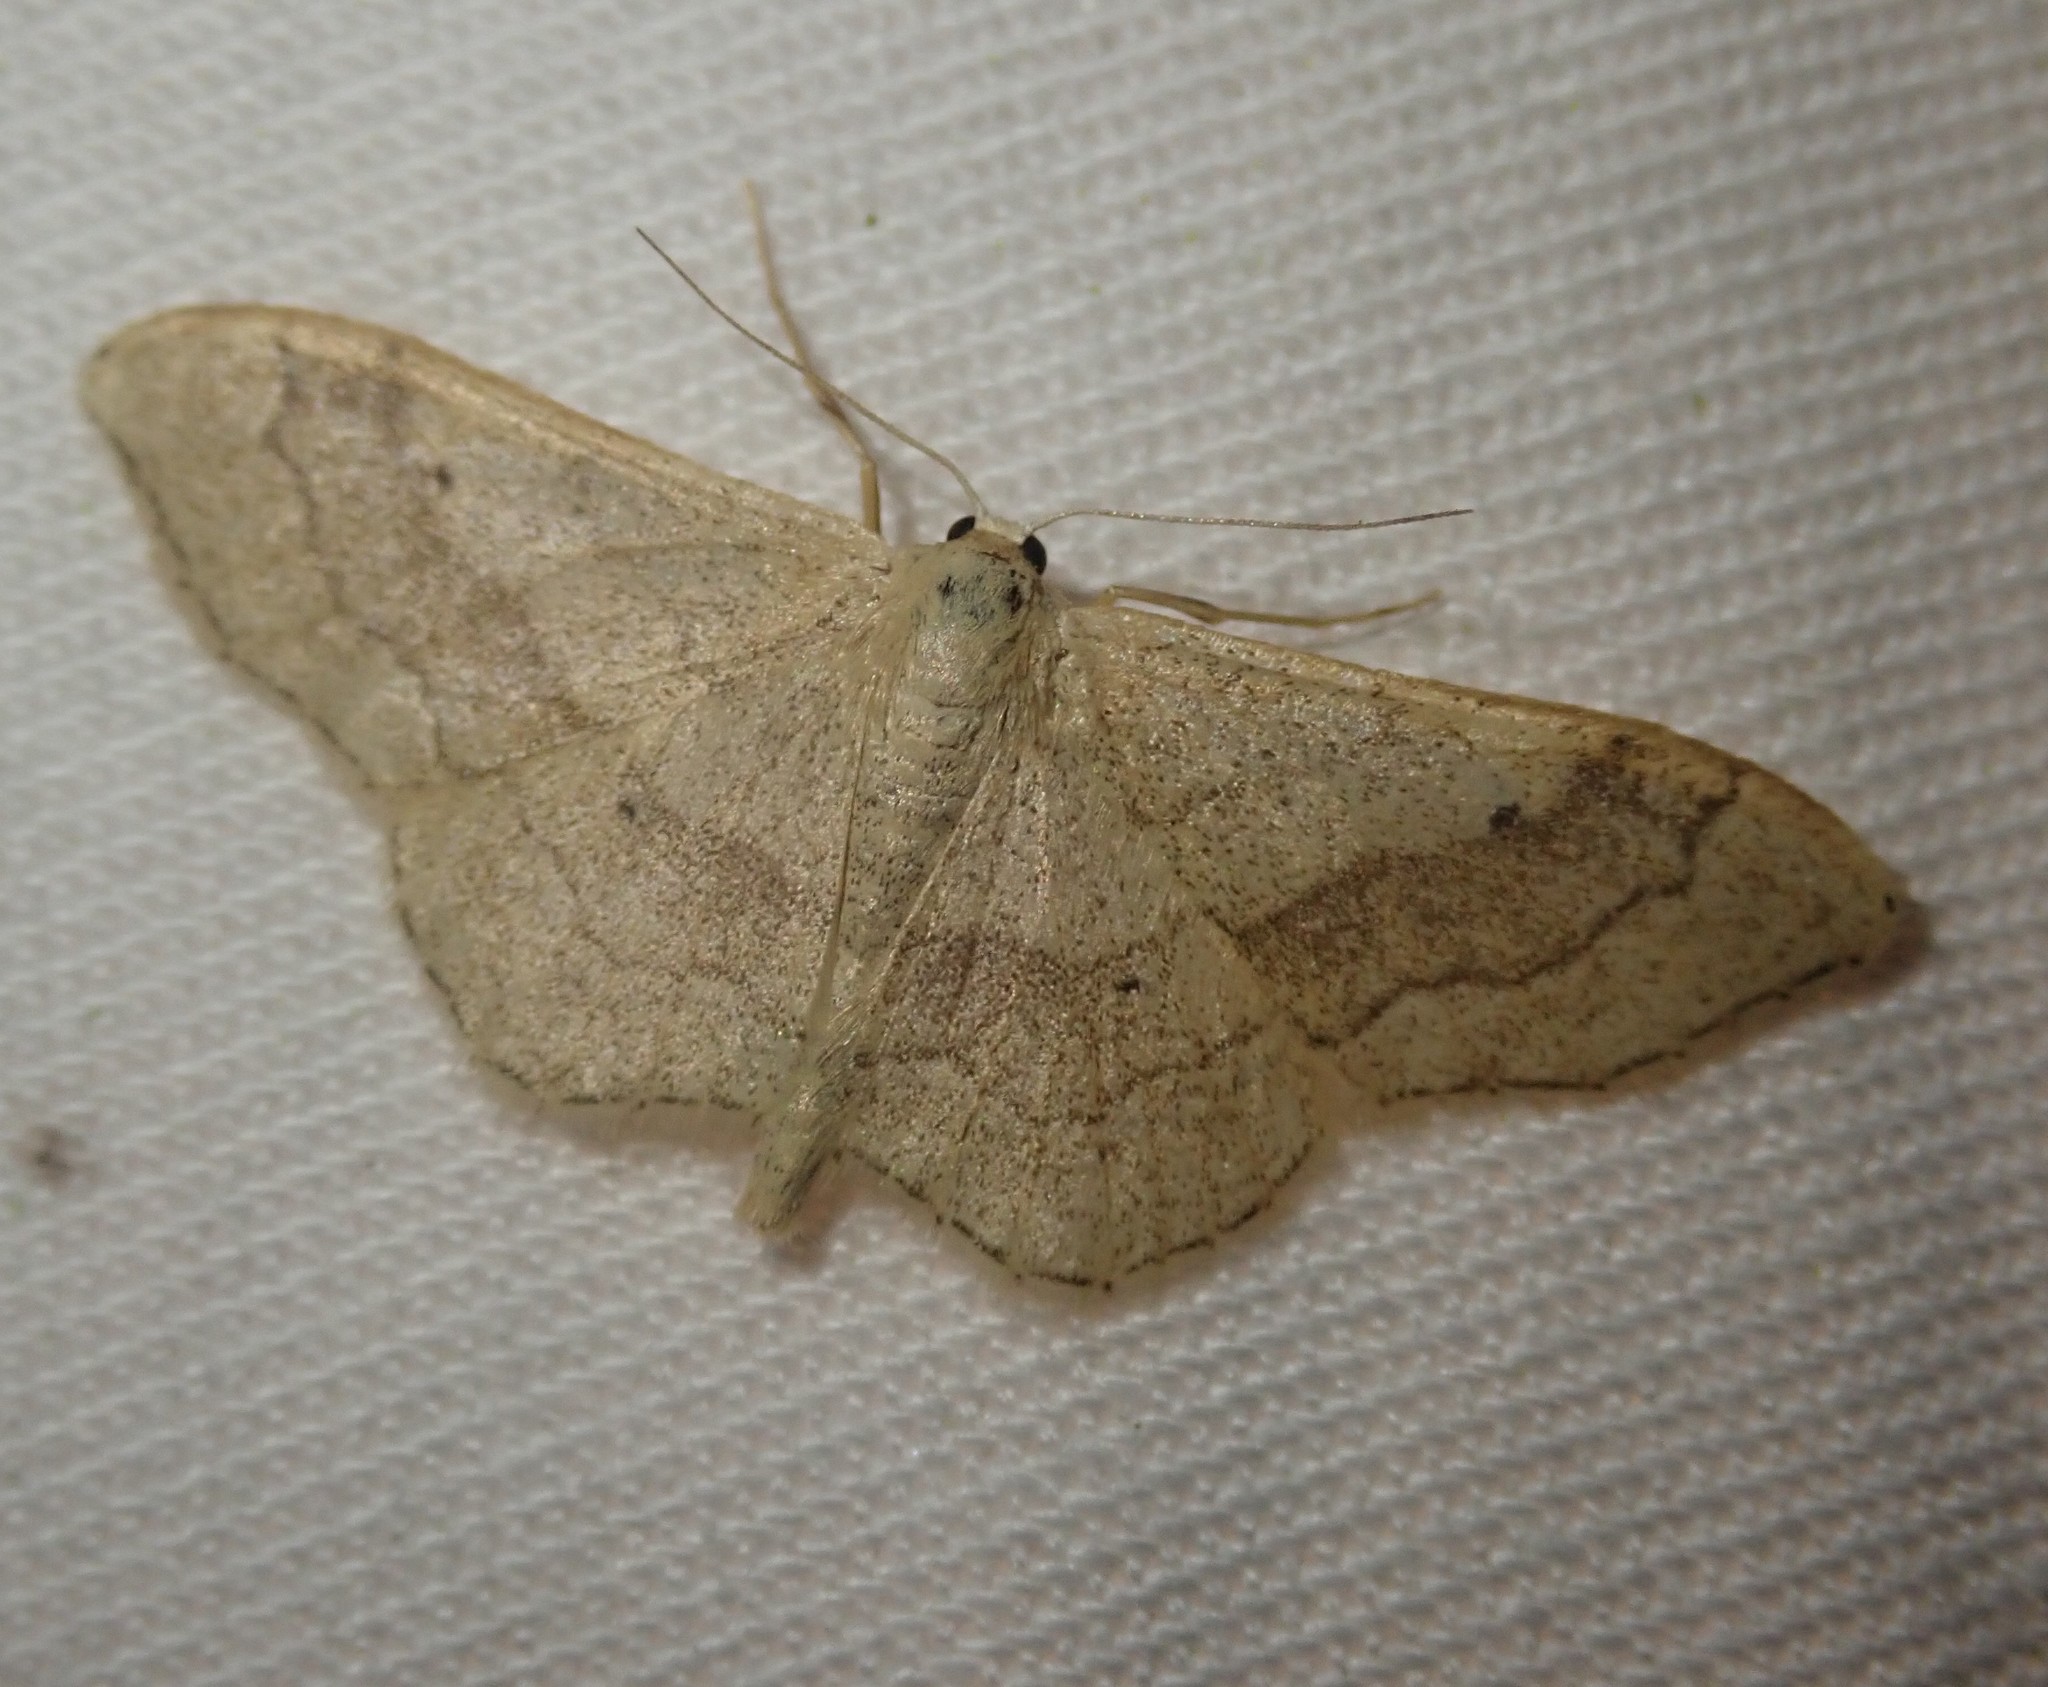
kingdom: Animalia
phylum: Arthropoda
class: Insecta
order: Lepidoptera
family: Geometridae
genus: Idaea
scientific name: Idaea aversata
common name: Riband wave
